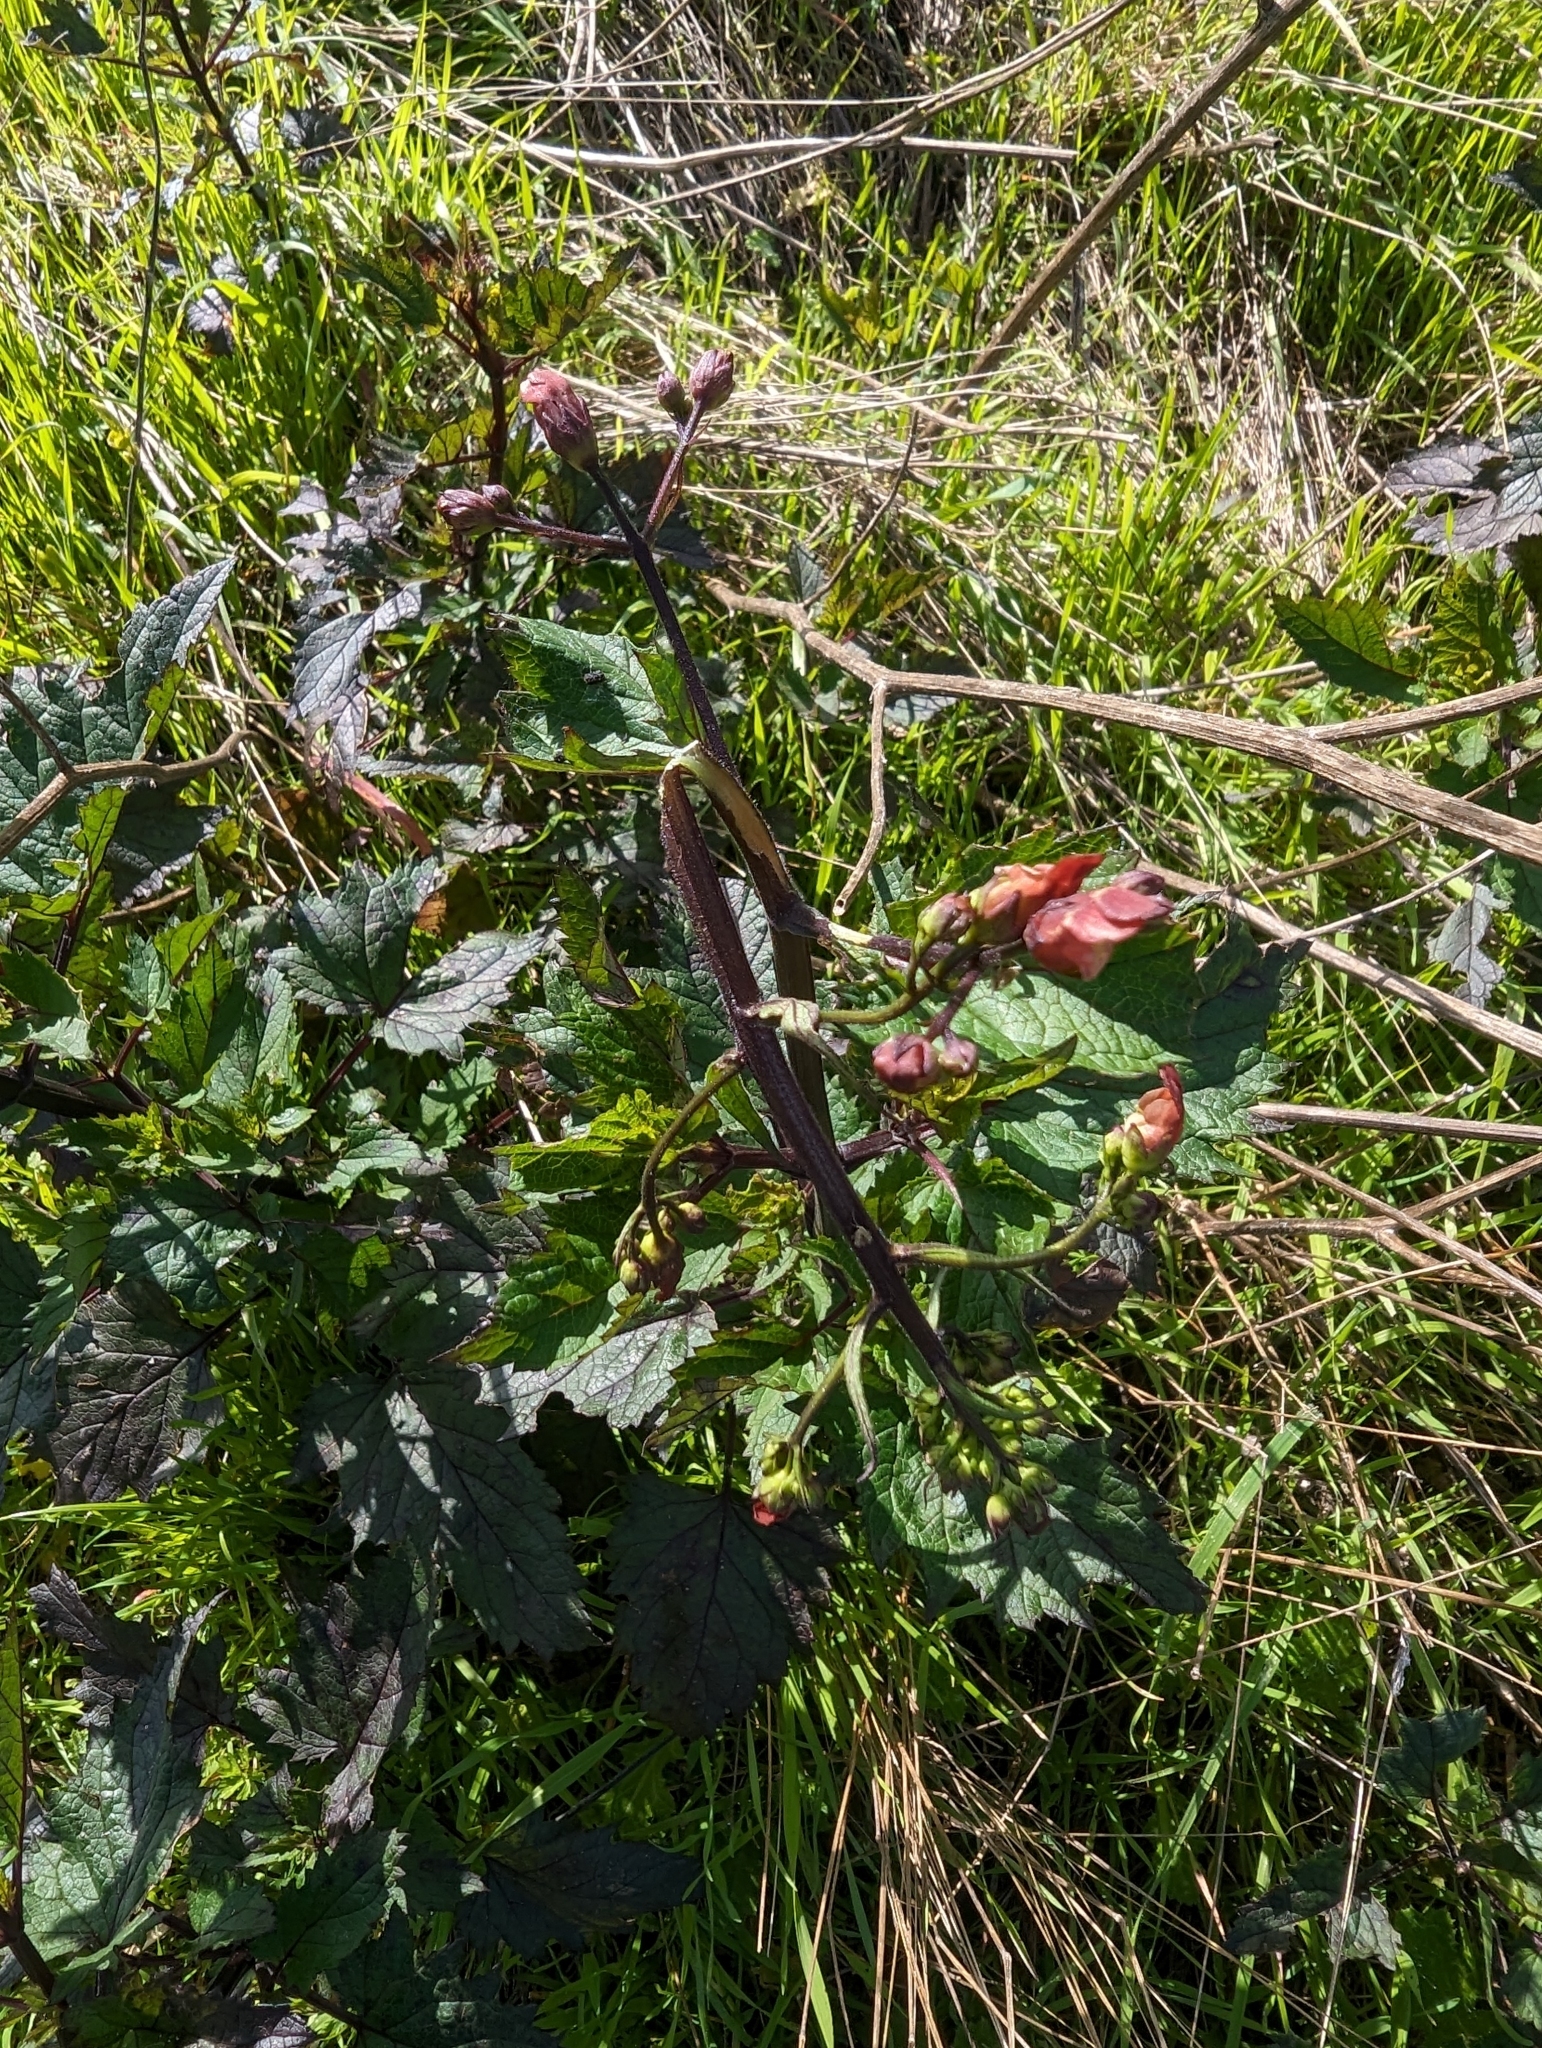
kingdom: Plantae
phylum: Tracheophyta
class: Magnoliopsida
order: Lamiales
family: Scrophulariaceae
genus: Scrophularia
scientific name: Scrophularia californica
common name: California figwort
